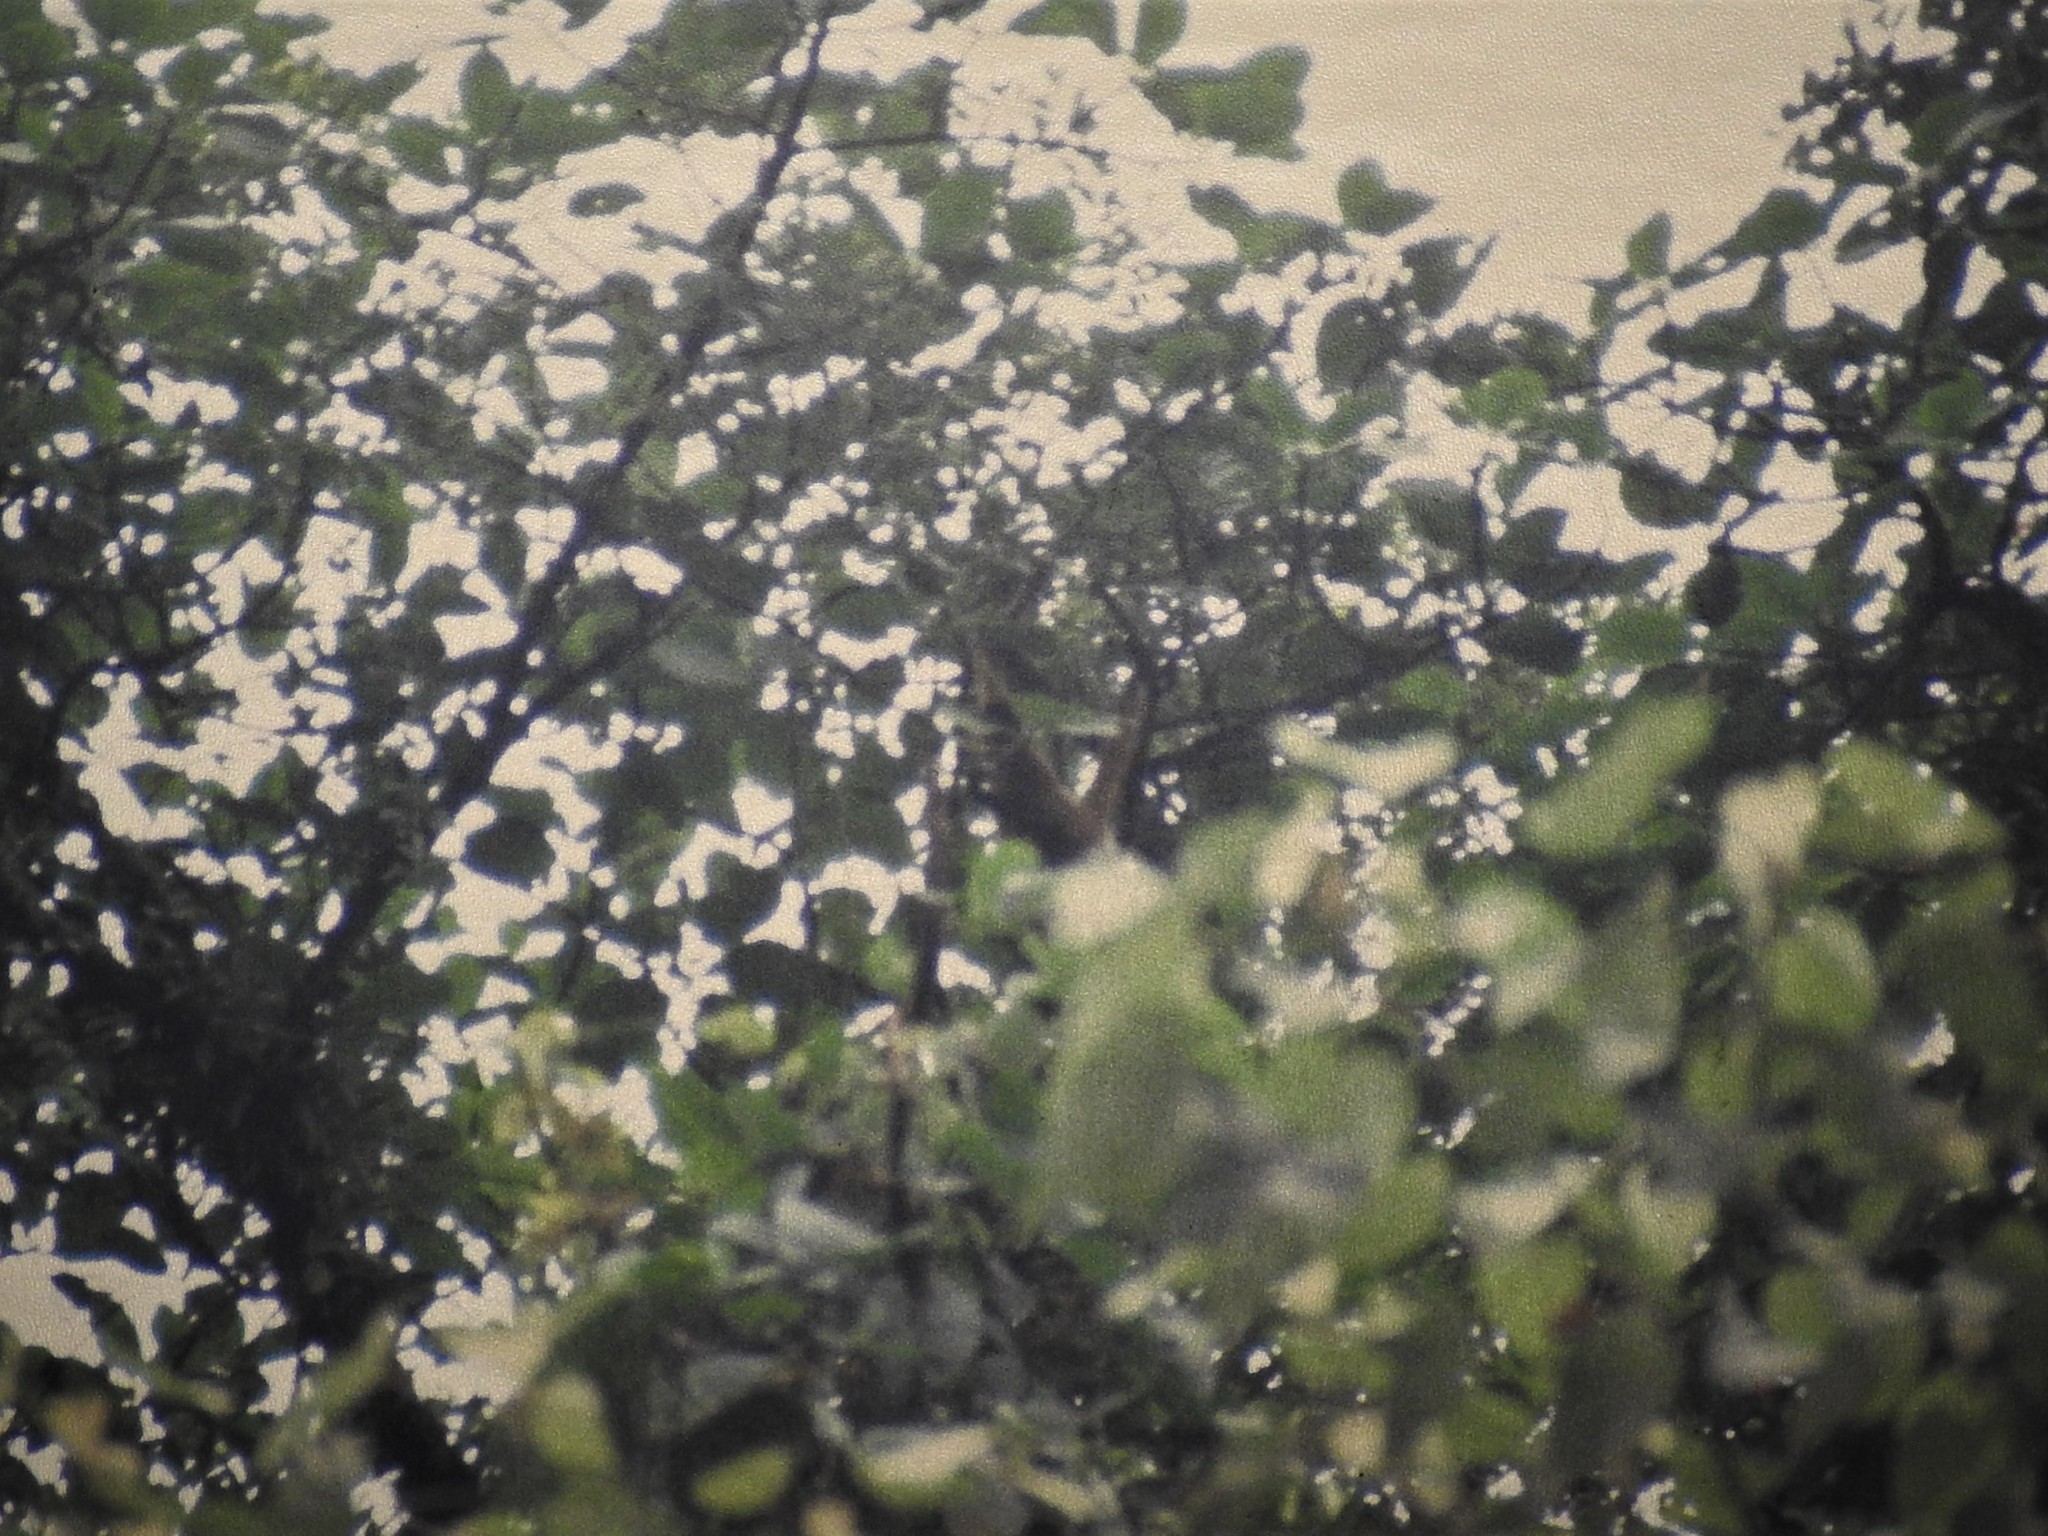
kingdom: Animalia
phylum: Chordata
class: Mammalia
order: Primates
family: Atelidae
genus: Ateles
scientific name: Ateles geoffroyi
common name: Black-handed spider monkey
